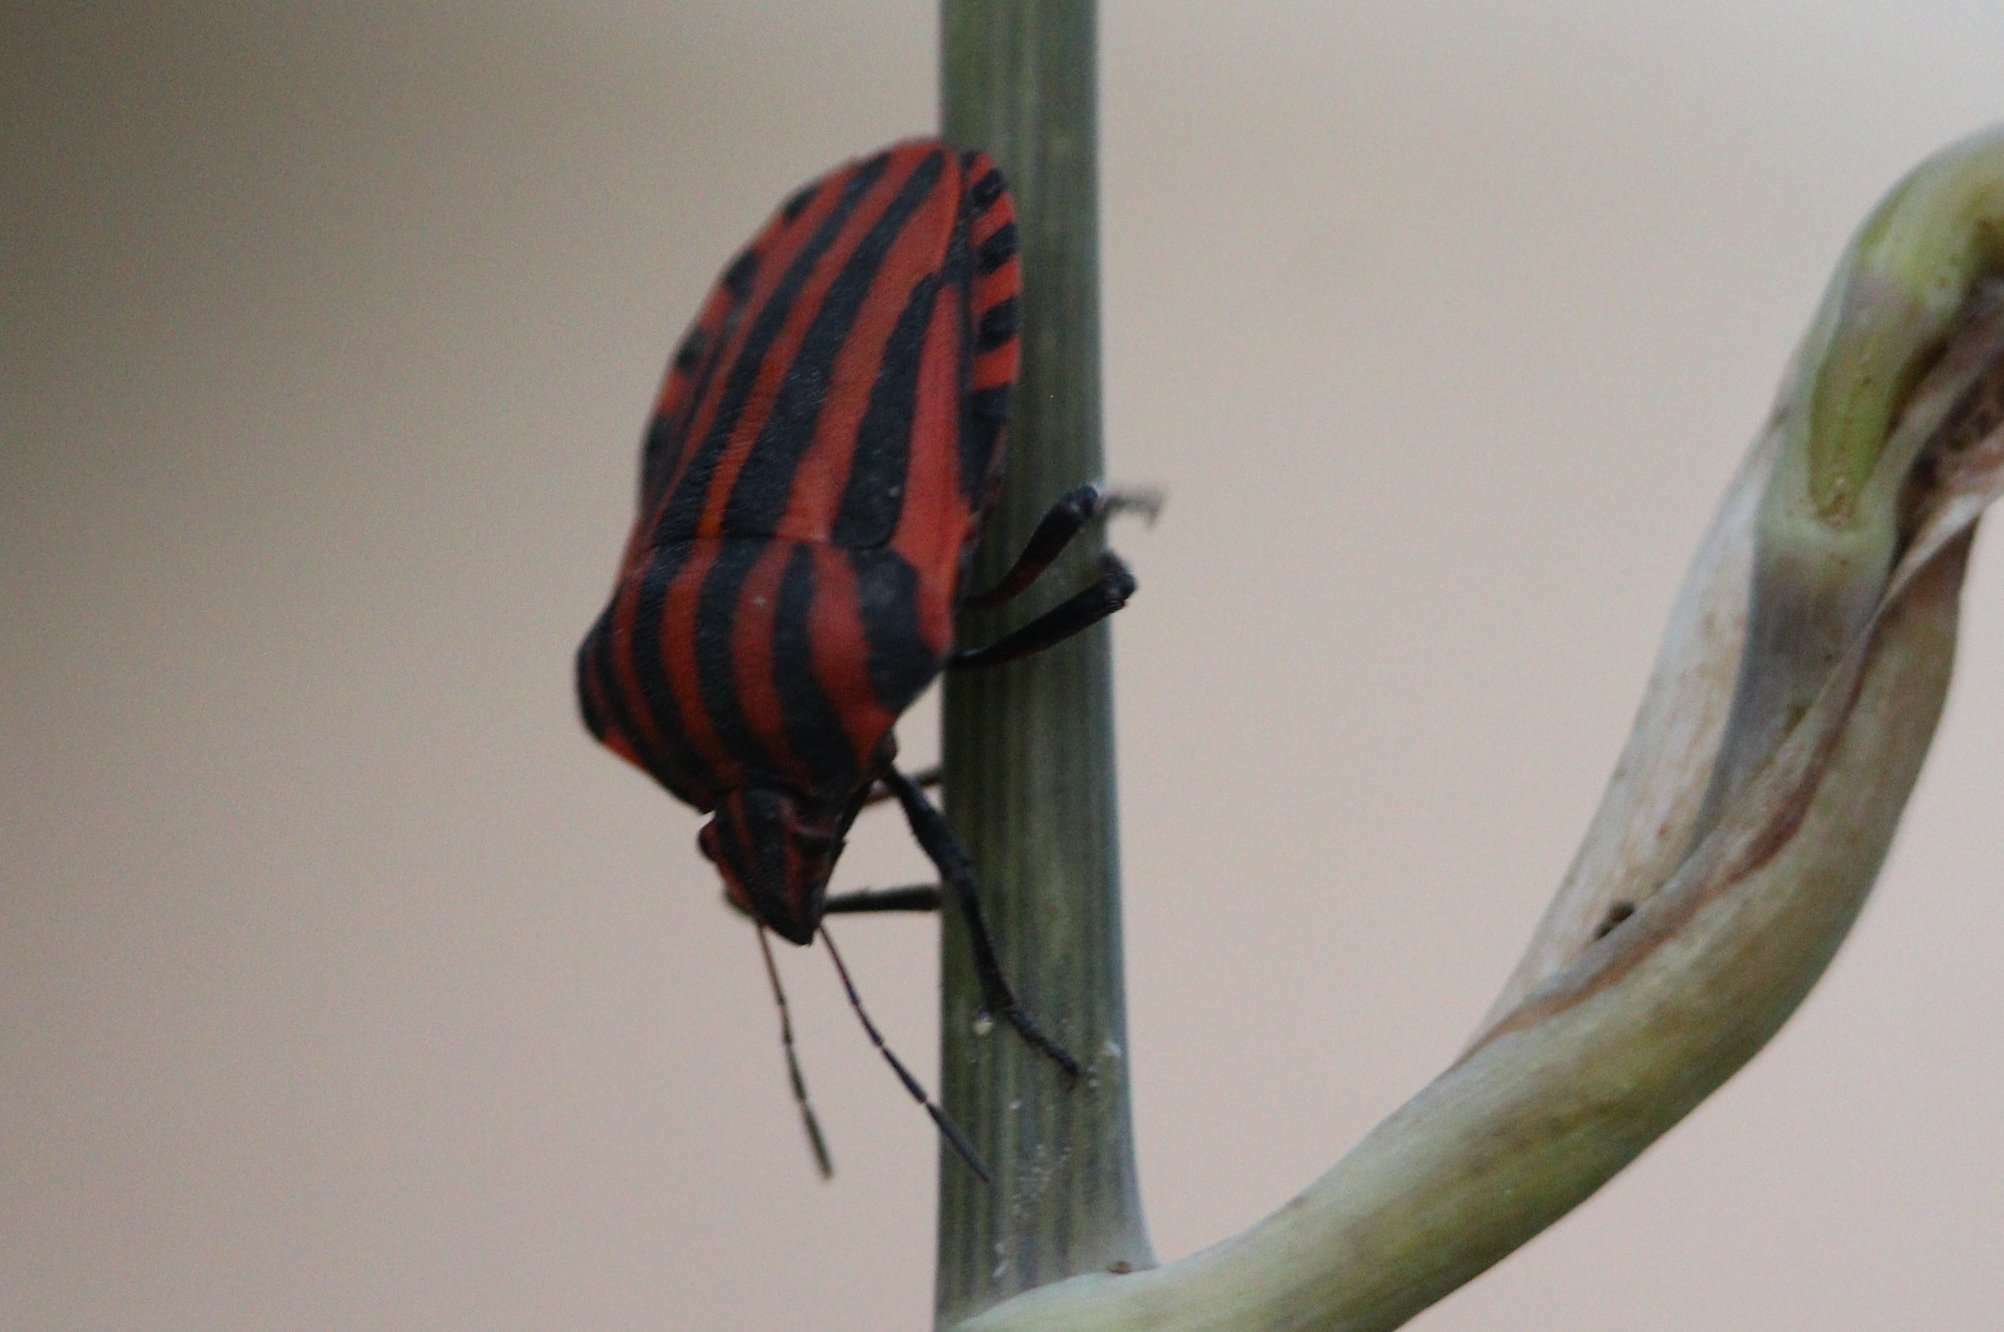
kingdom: Animalia
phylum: Arthropoda
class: Insecta
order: Hemiptera
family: Pentatomidae
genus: Graphosoma
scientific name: Graphosoma italicum
